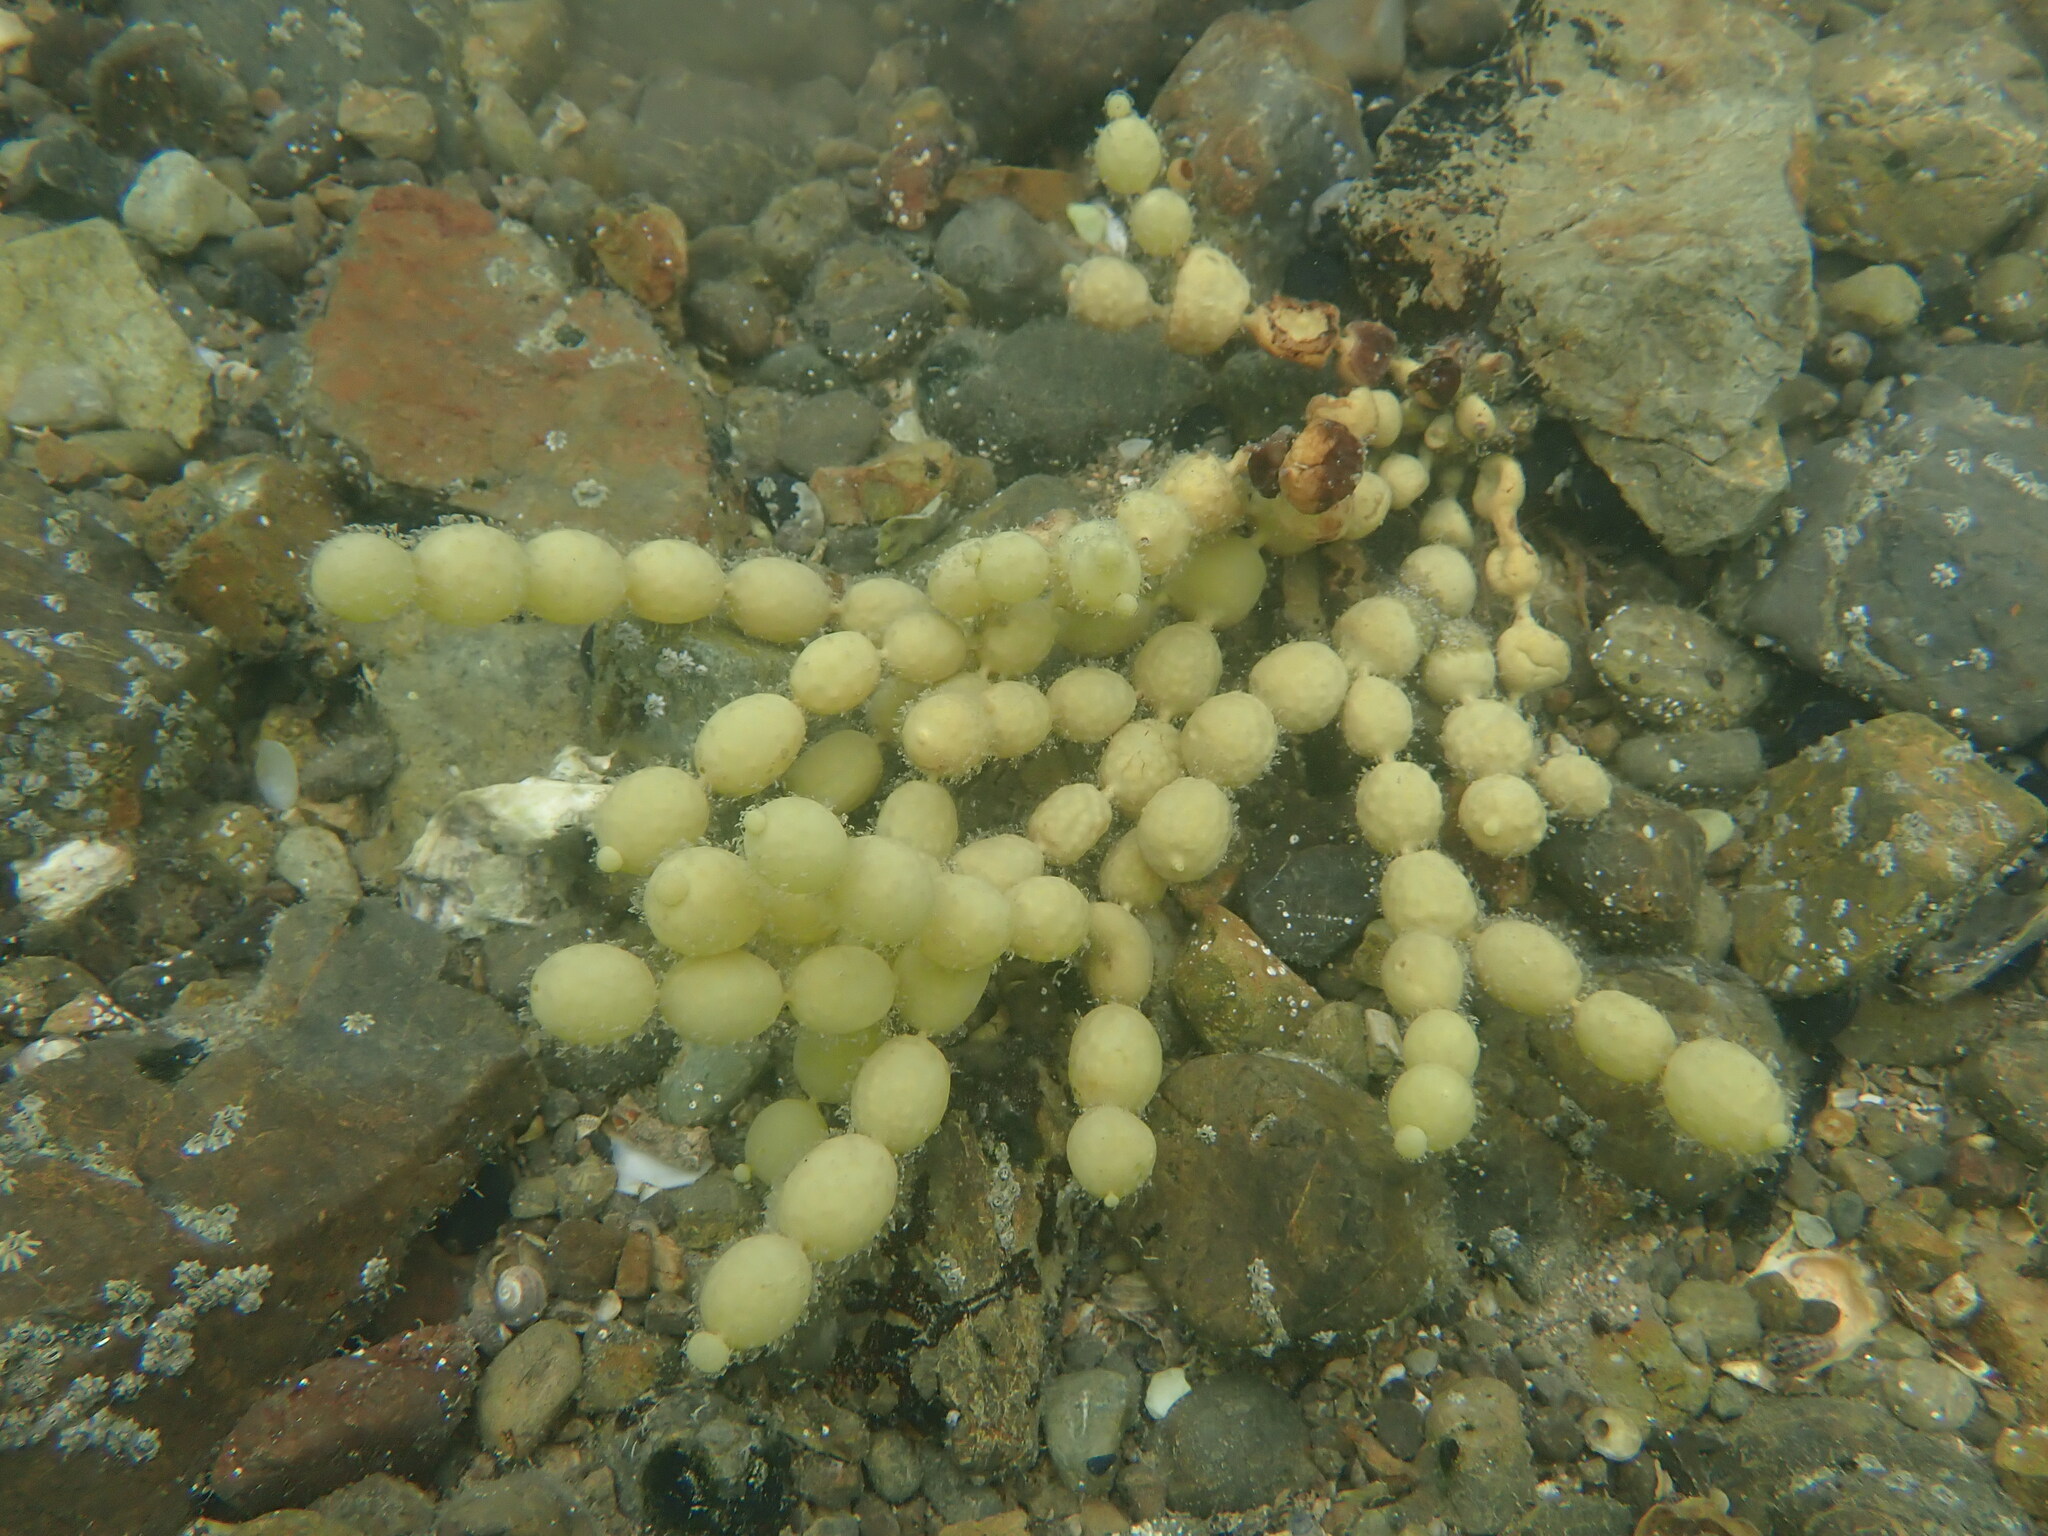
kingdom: Chromista
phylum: Ochrophyta
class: Phaeophyceae
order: Fucales
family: Hormosiraceae
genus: Hormosira
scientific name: Hormosira banksii
